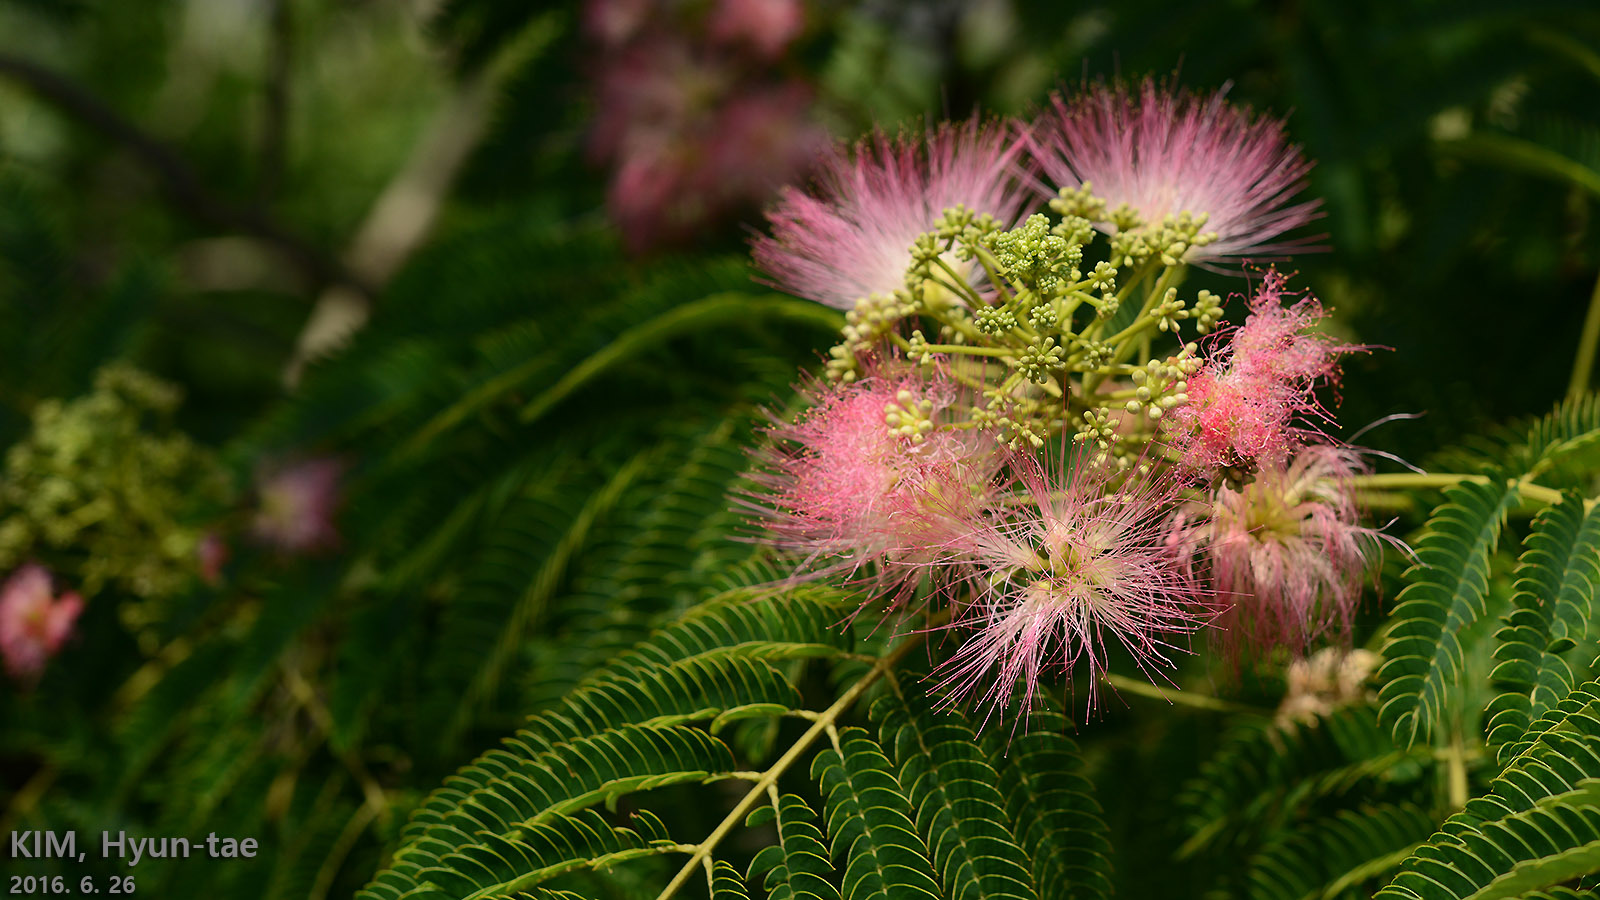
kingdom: Plantae
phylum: Tracheophyta
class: Magnoliopsida
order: Fabales
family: Fabaceae
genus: Albizia
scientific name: Albizia julibrissin
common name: Silktree
